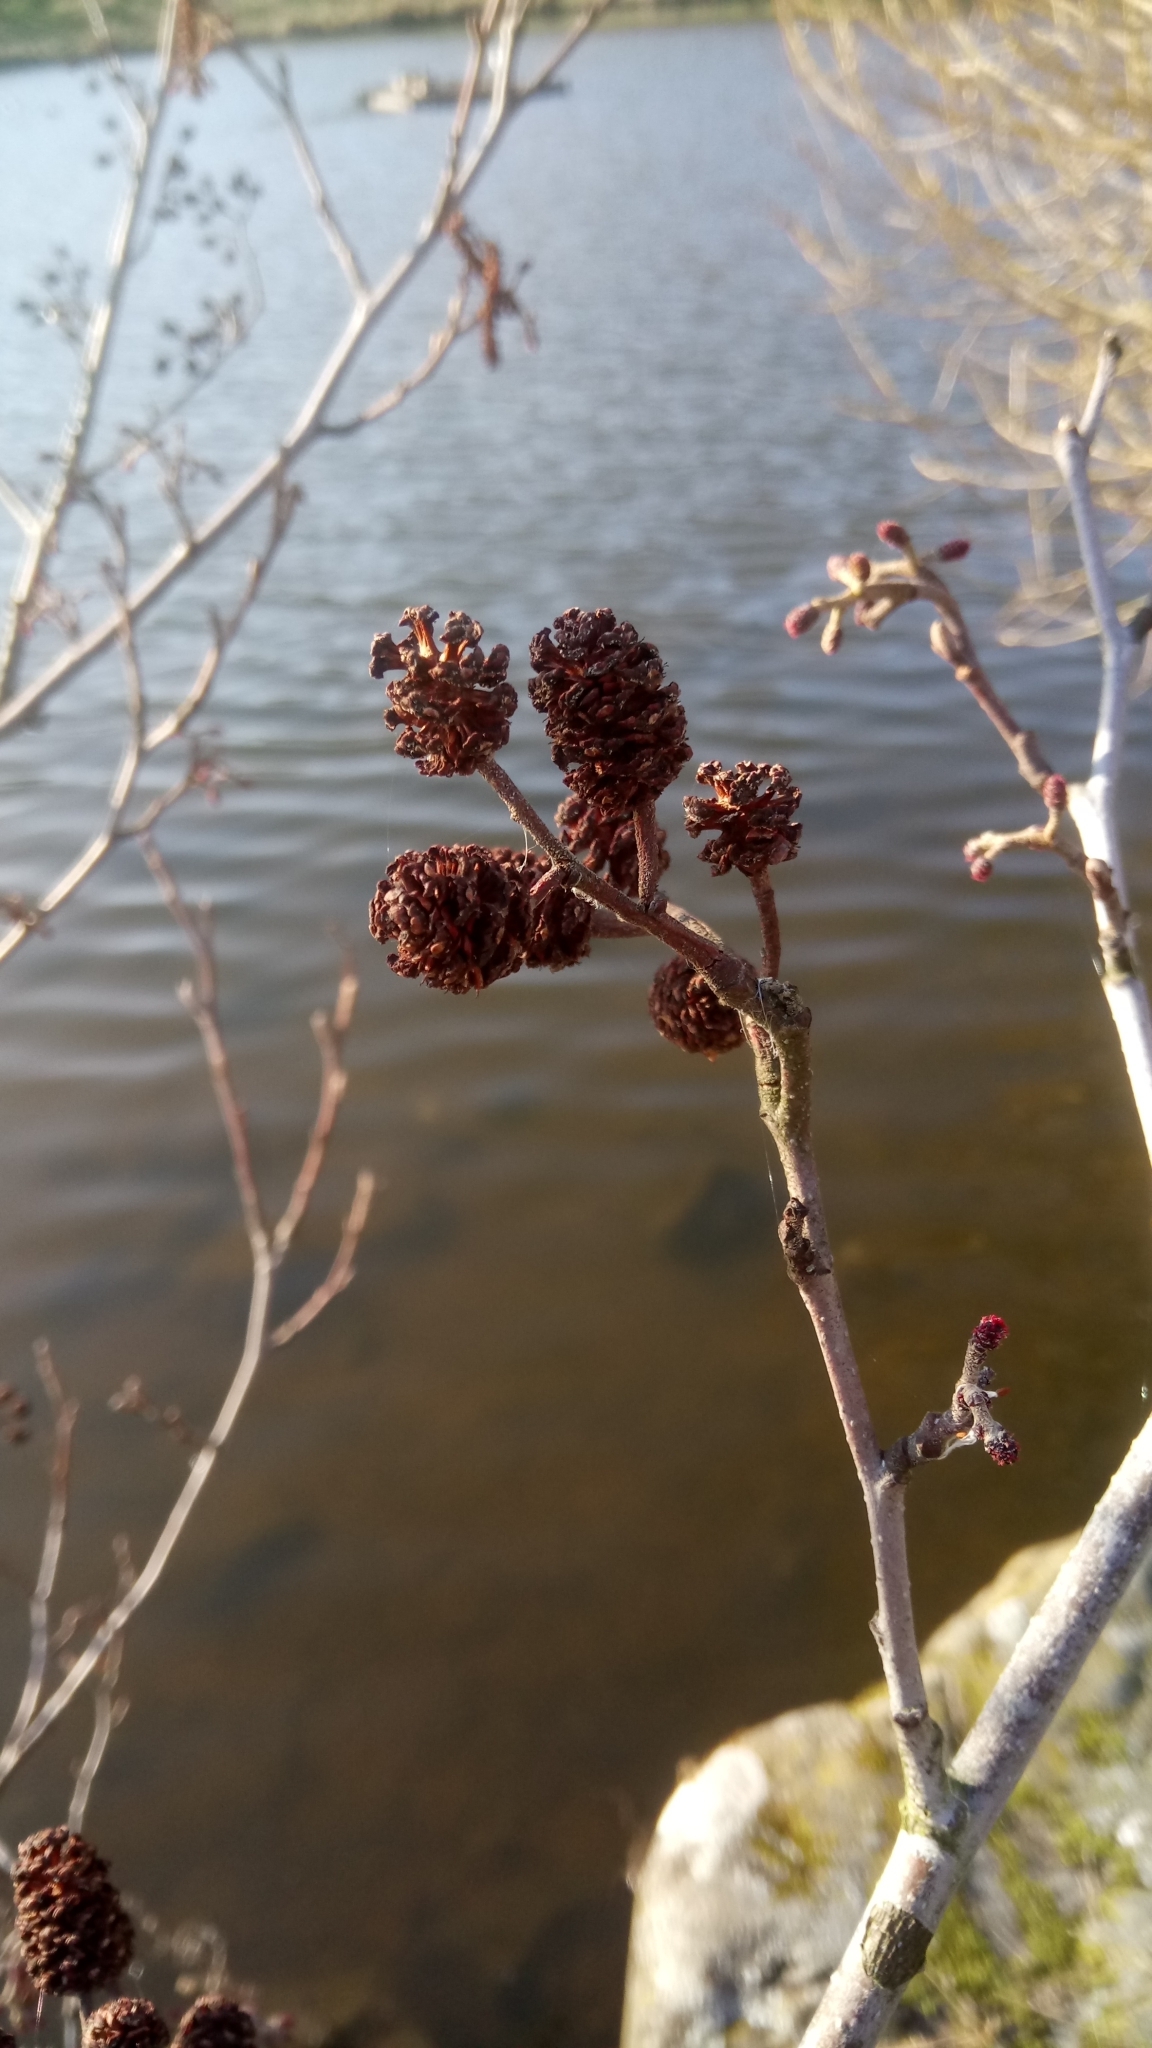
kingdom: Plantae
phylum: Tracheophyta
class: Magnoliopsida
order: Fagales
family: Betulaceae
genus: Alnus
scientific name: Alnus glutinosa
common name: Black alder
